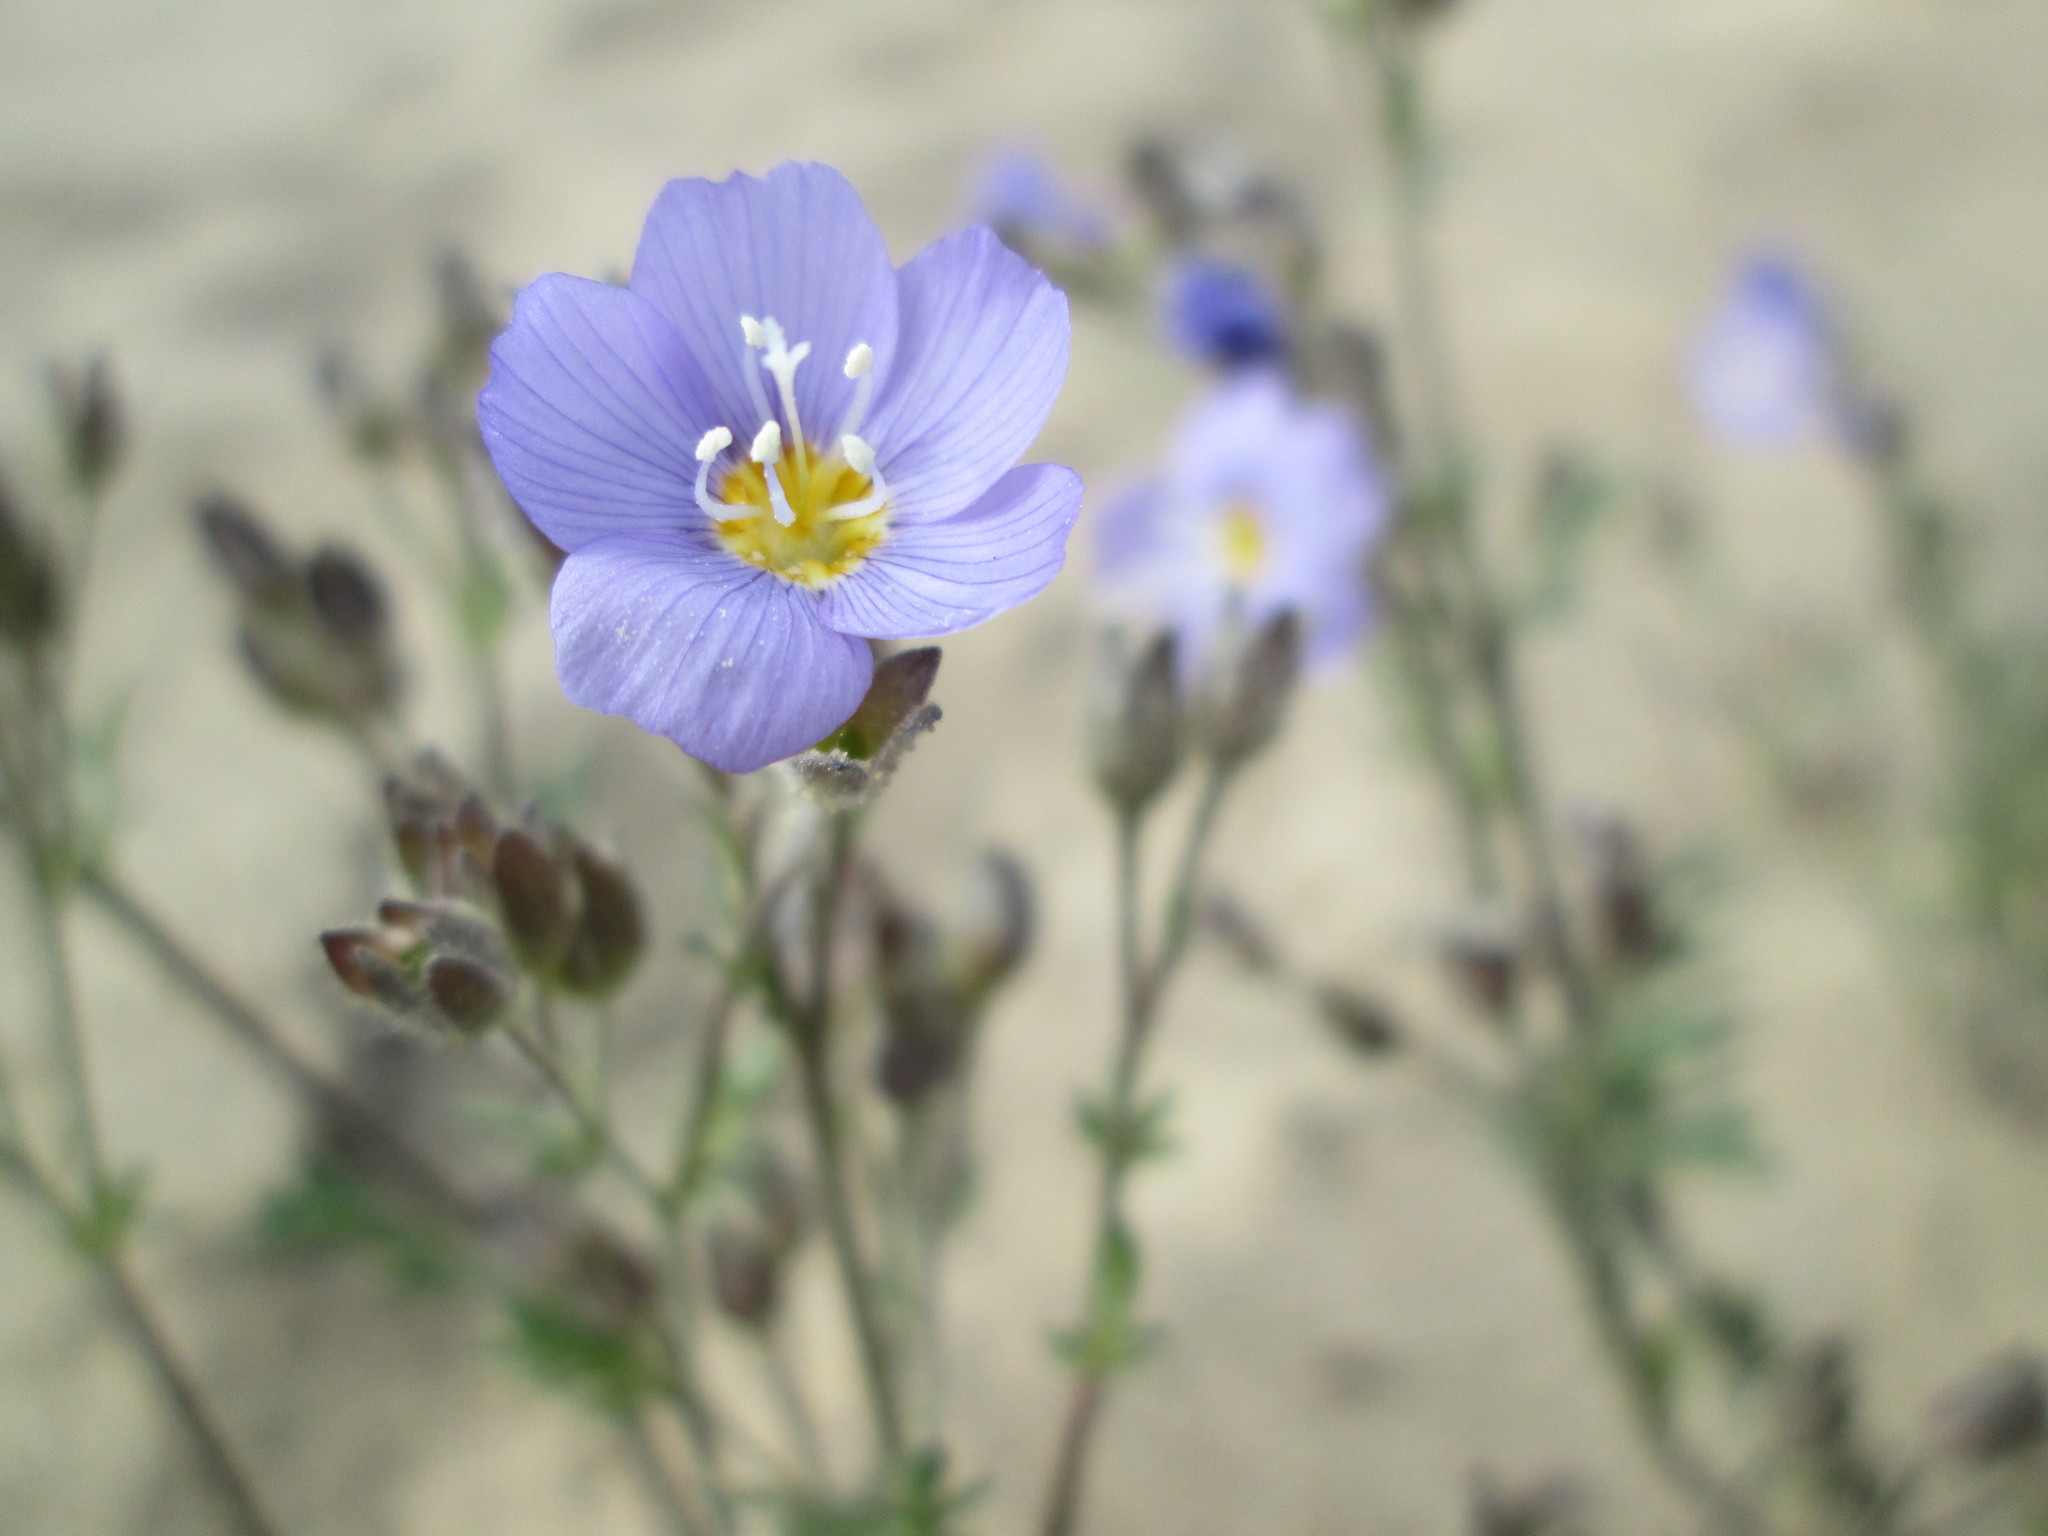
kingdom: Plantae
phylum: Tracheophyta
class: Magnoliopsida
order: Ericales
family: Polemoniaceae
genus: Polemonium
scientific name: Polemonium pulcherrimum
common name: Short jacob's-ladder
